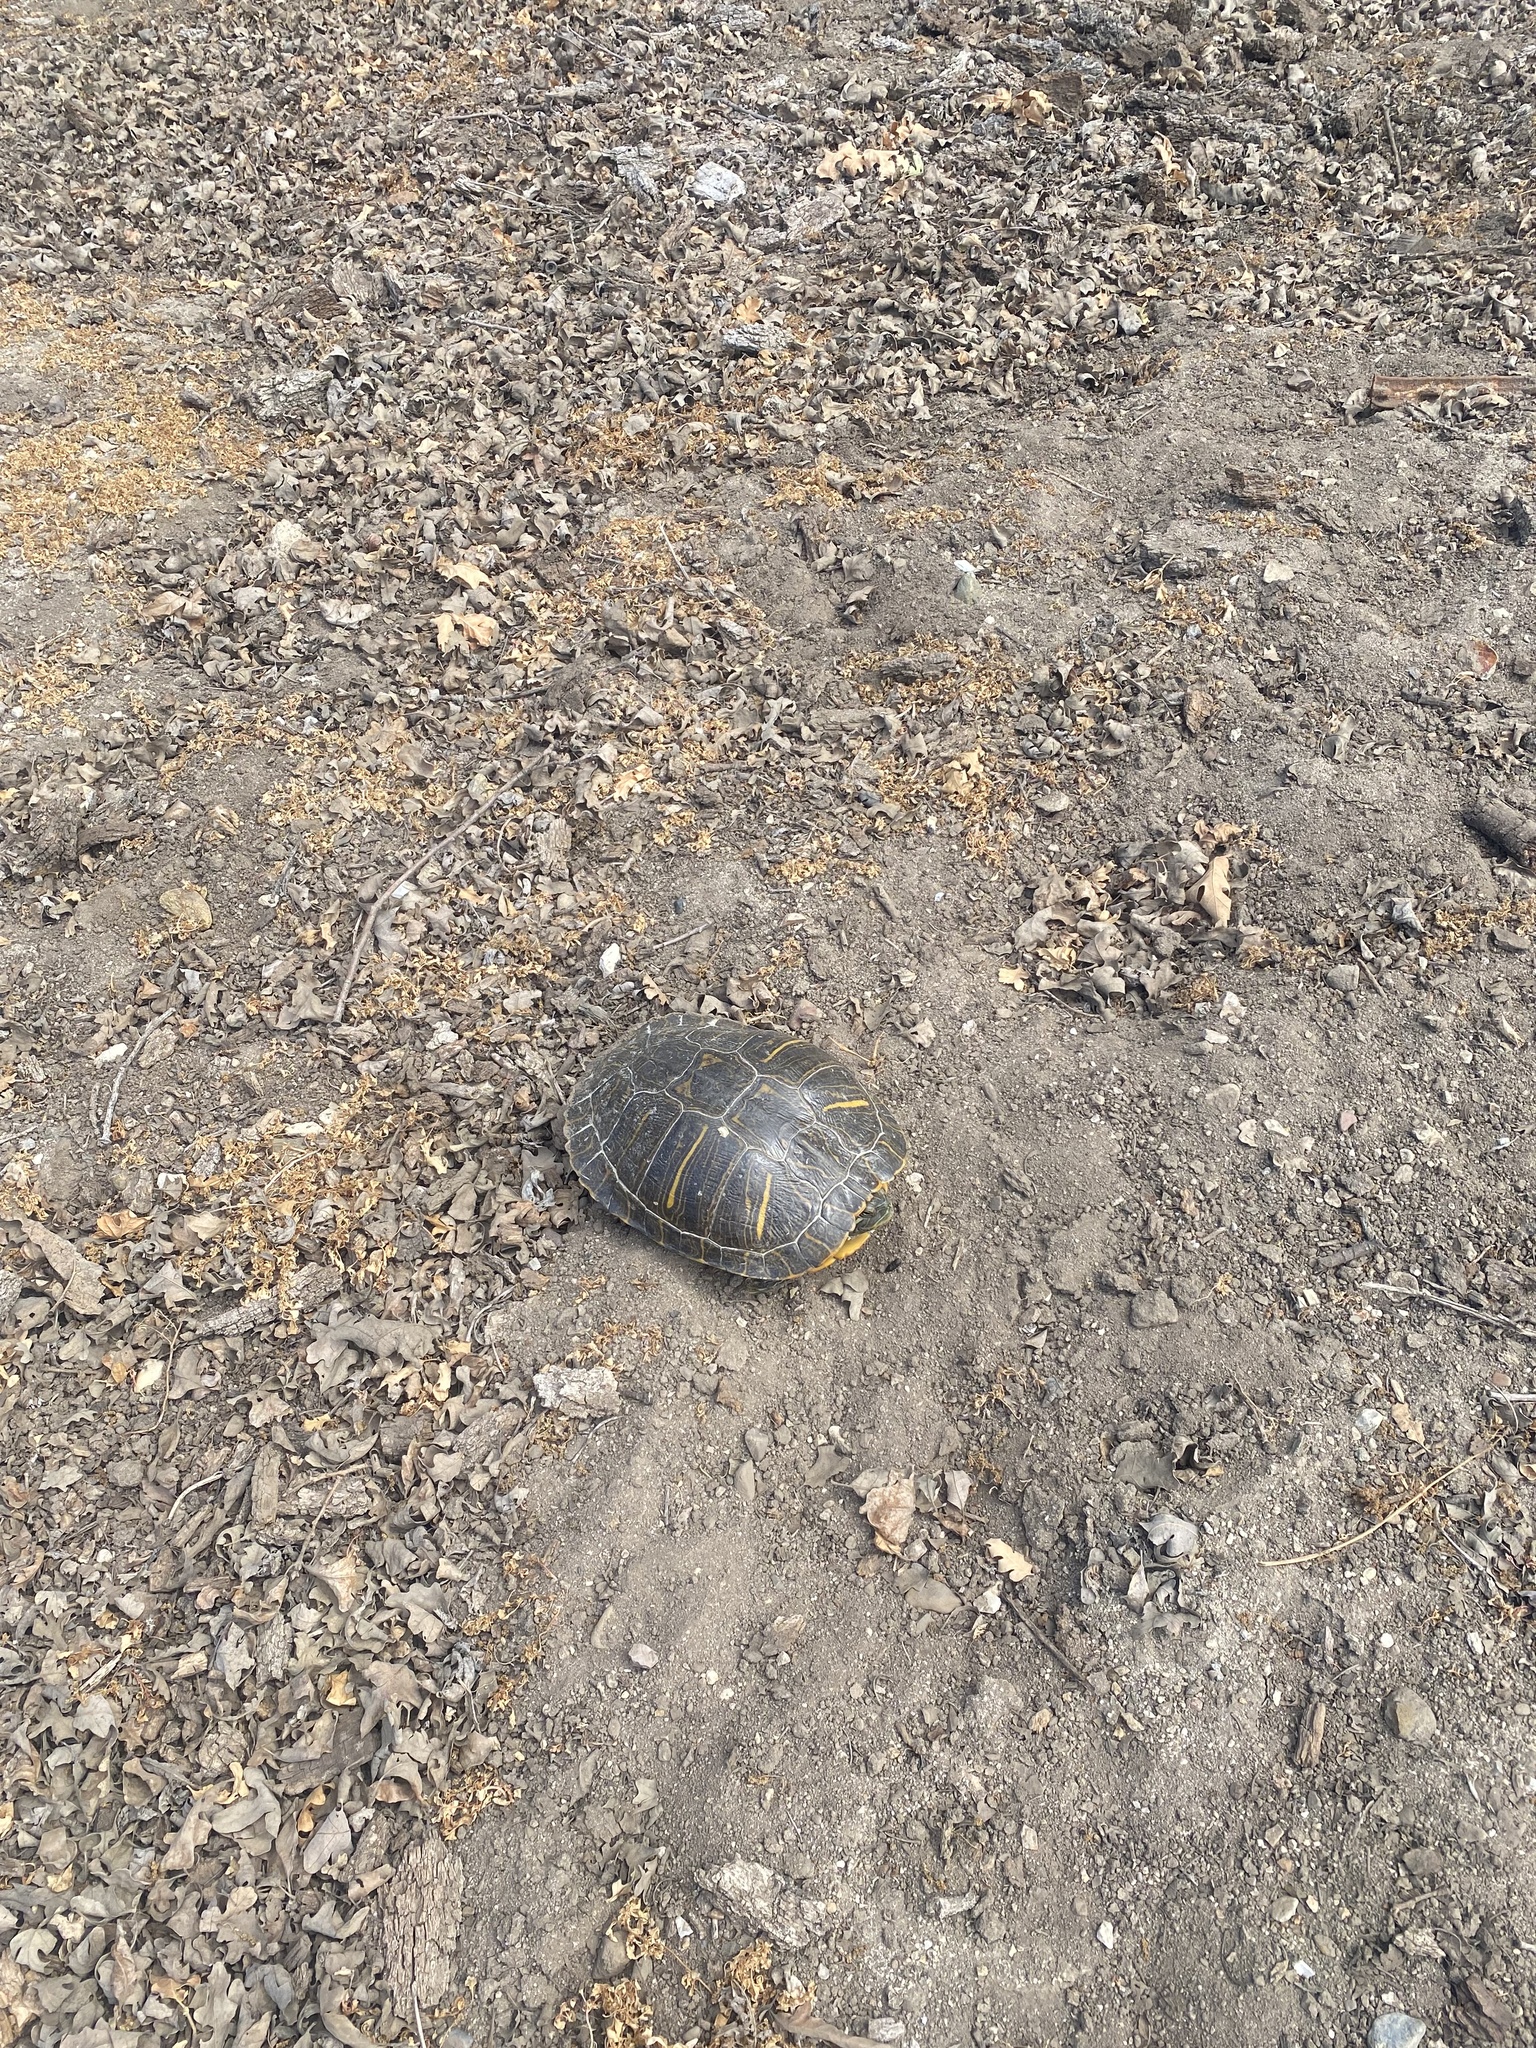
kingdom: Animalia
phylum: Chordata
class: Testudines
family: Emydidae
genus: Trachemys
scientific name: Trachemys scripta
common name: Slider
